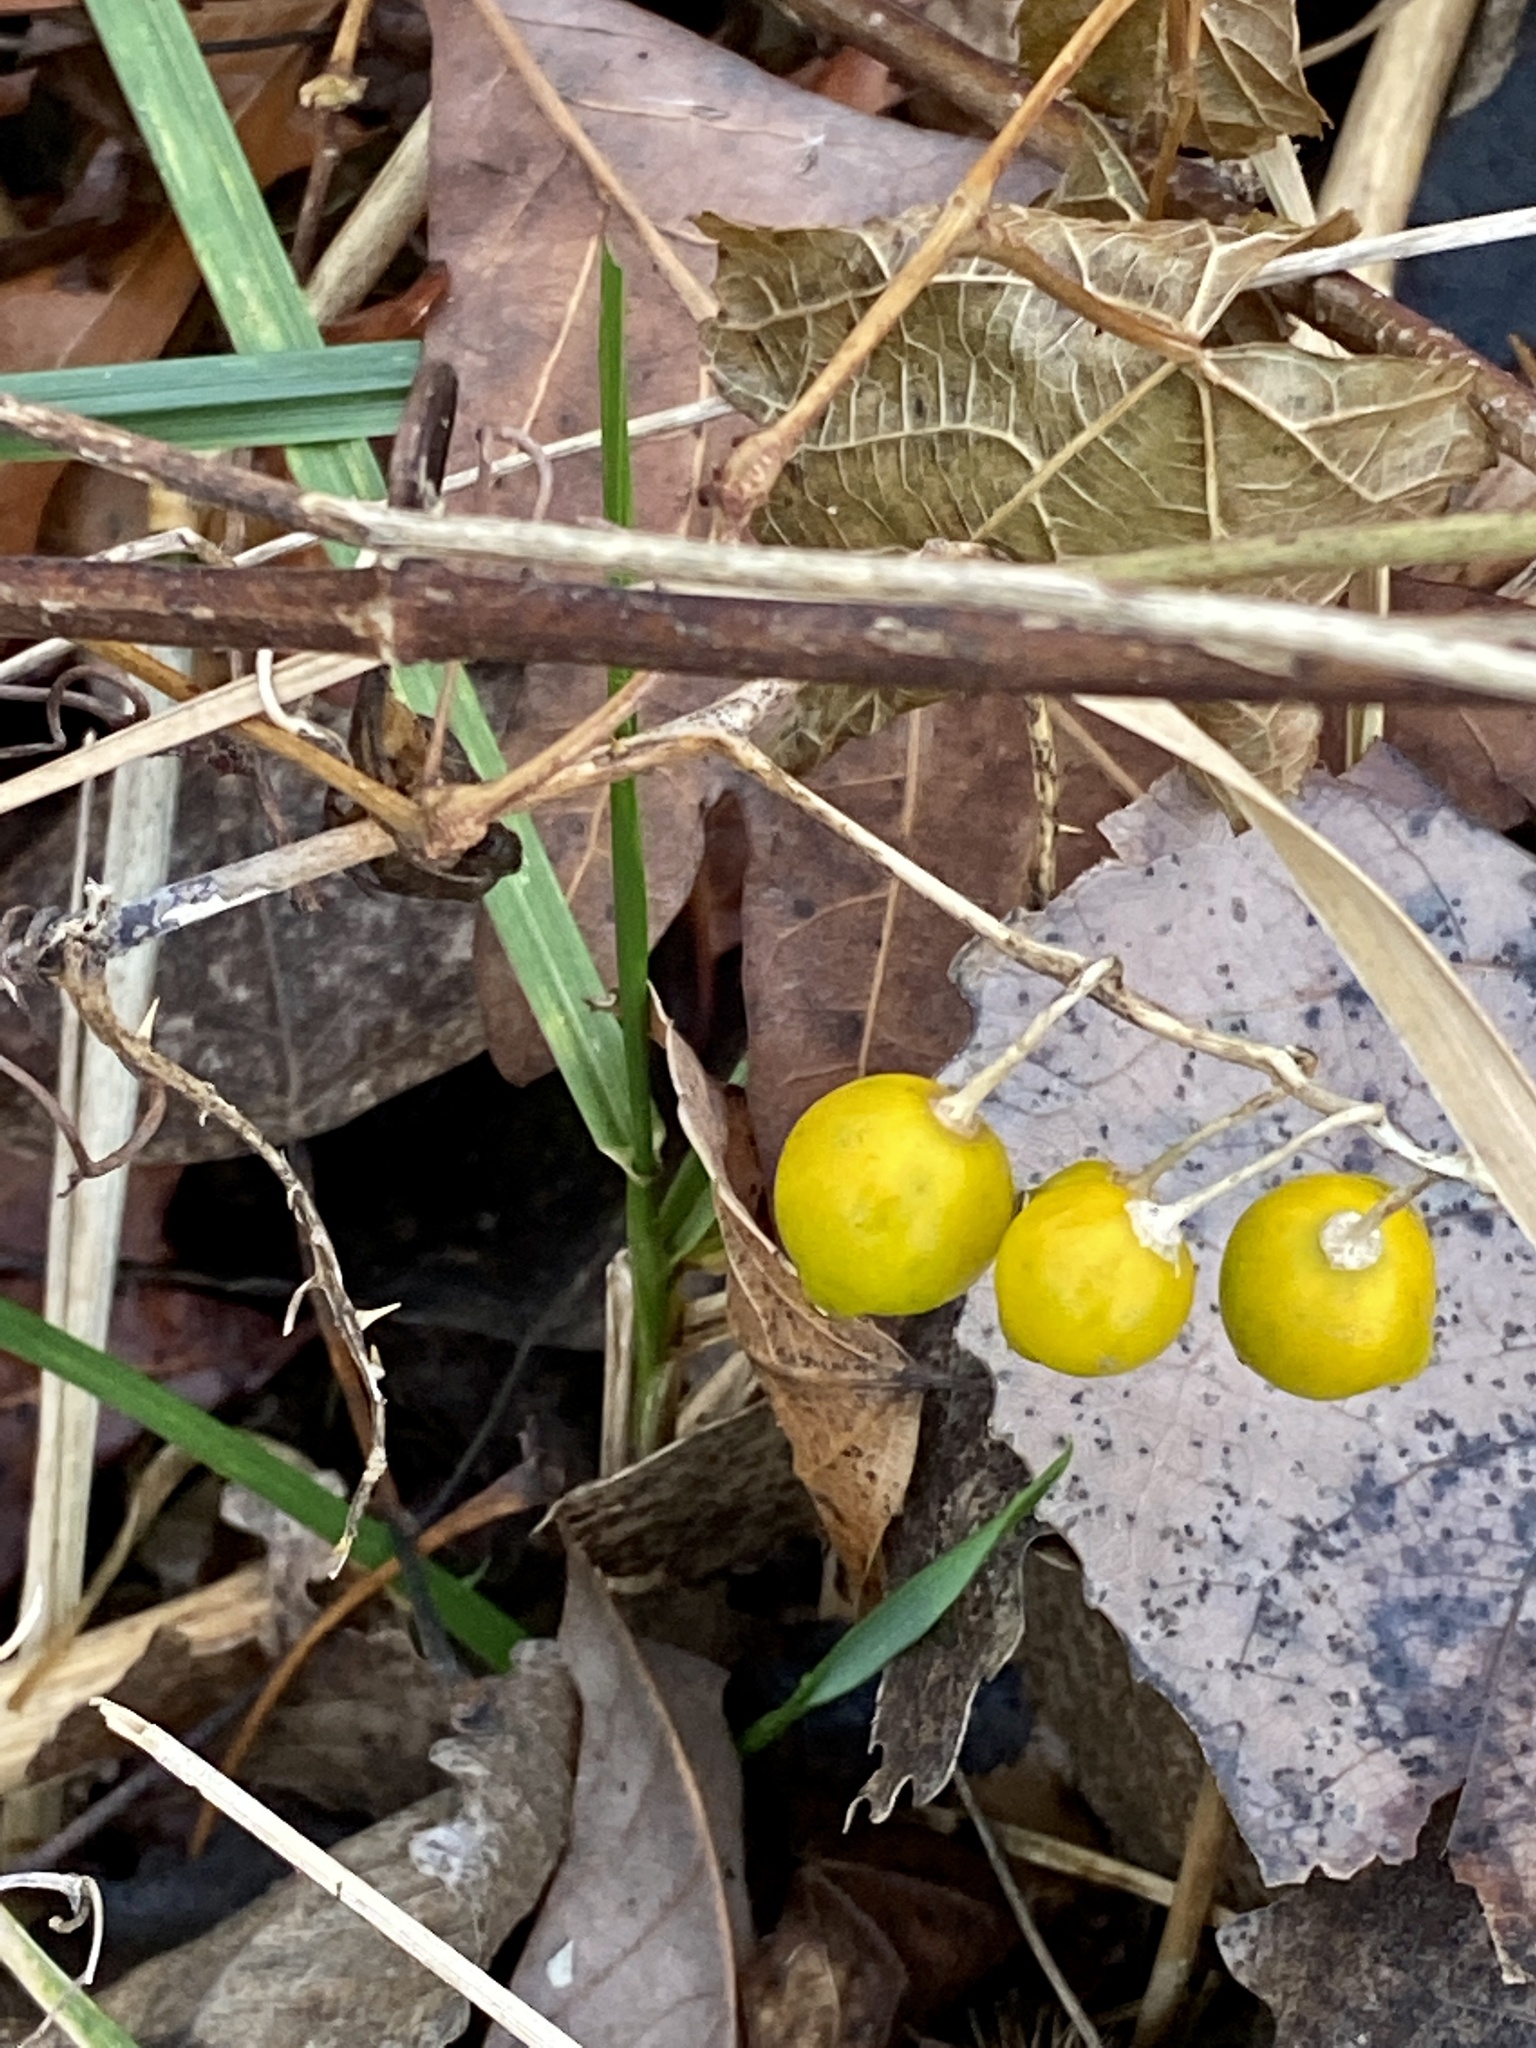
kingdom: Plantae
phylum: Tracheophyta
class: Magnoliopsida
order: Solanales
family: Solanaceae
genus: Solanum
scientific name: Solanum carolinense
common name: Horse-nettle
